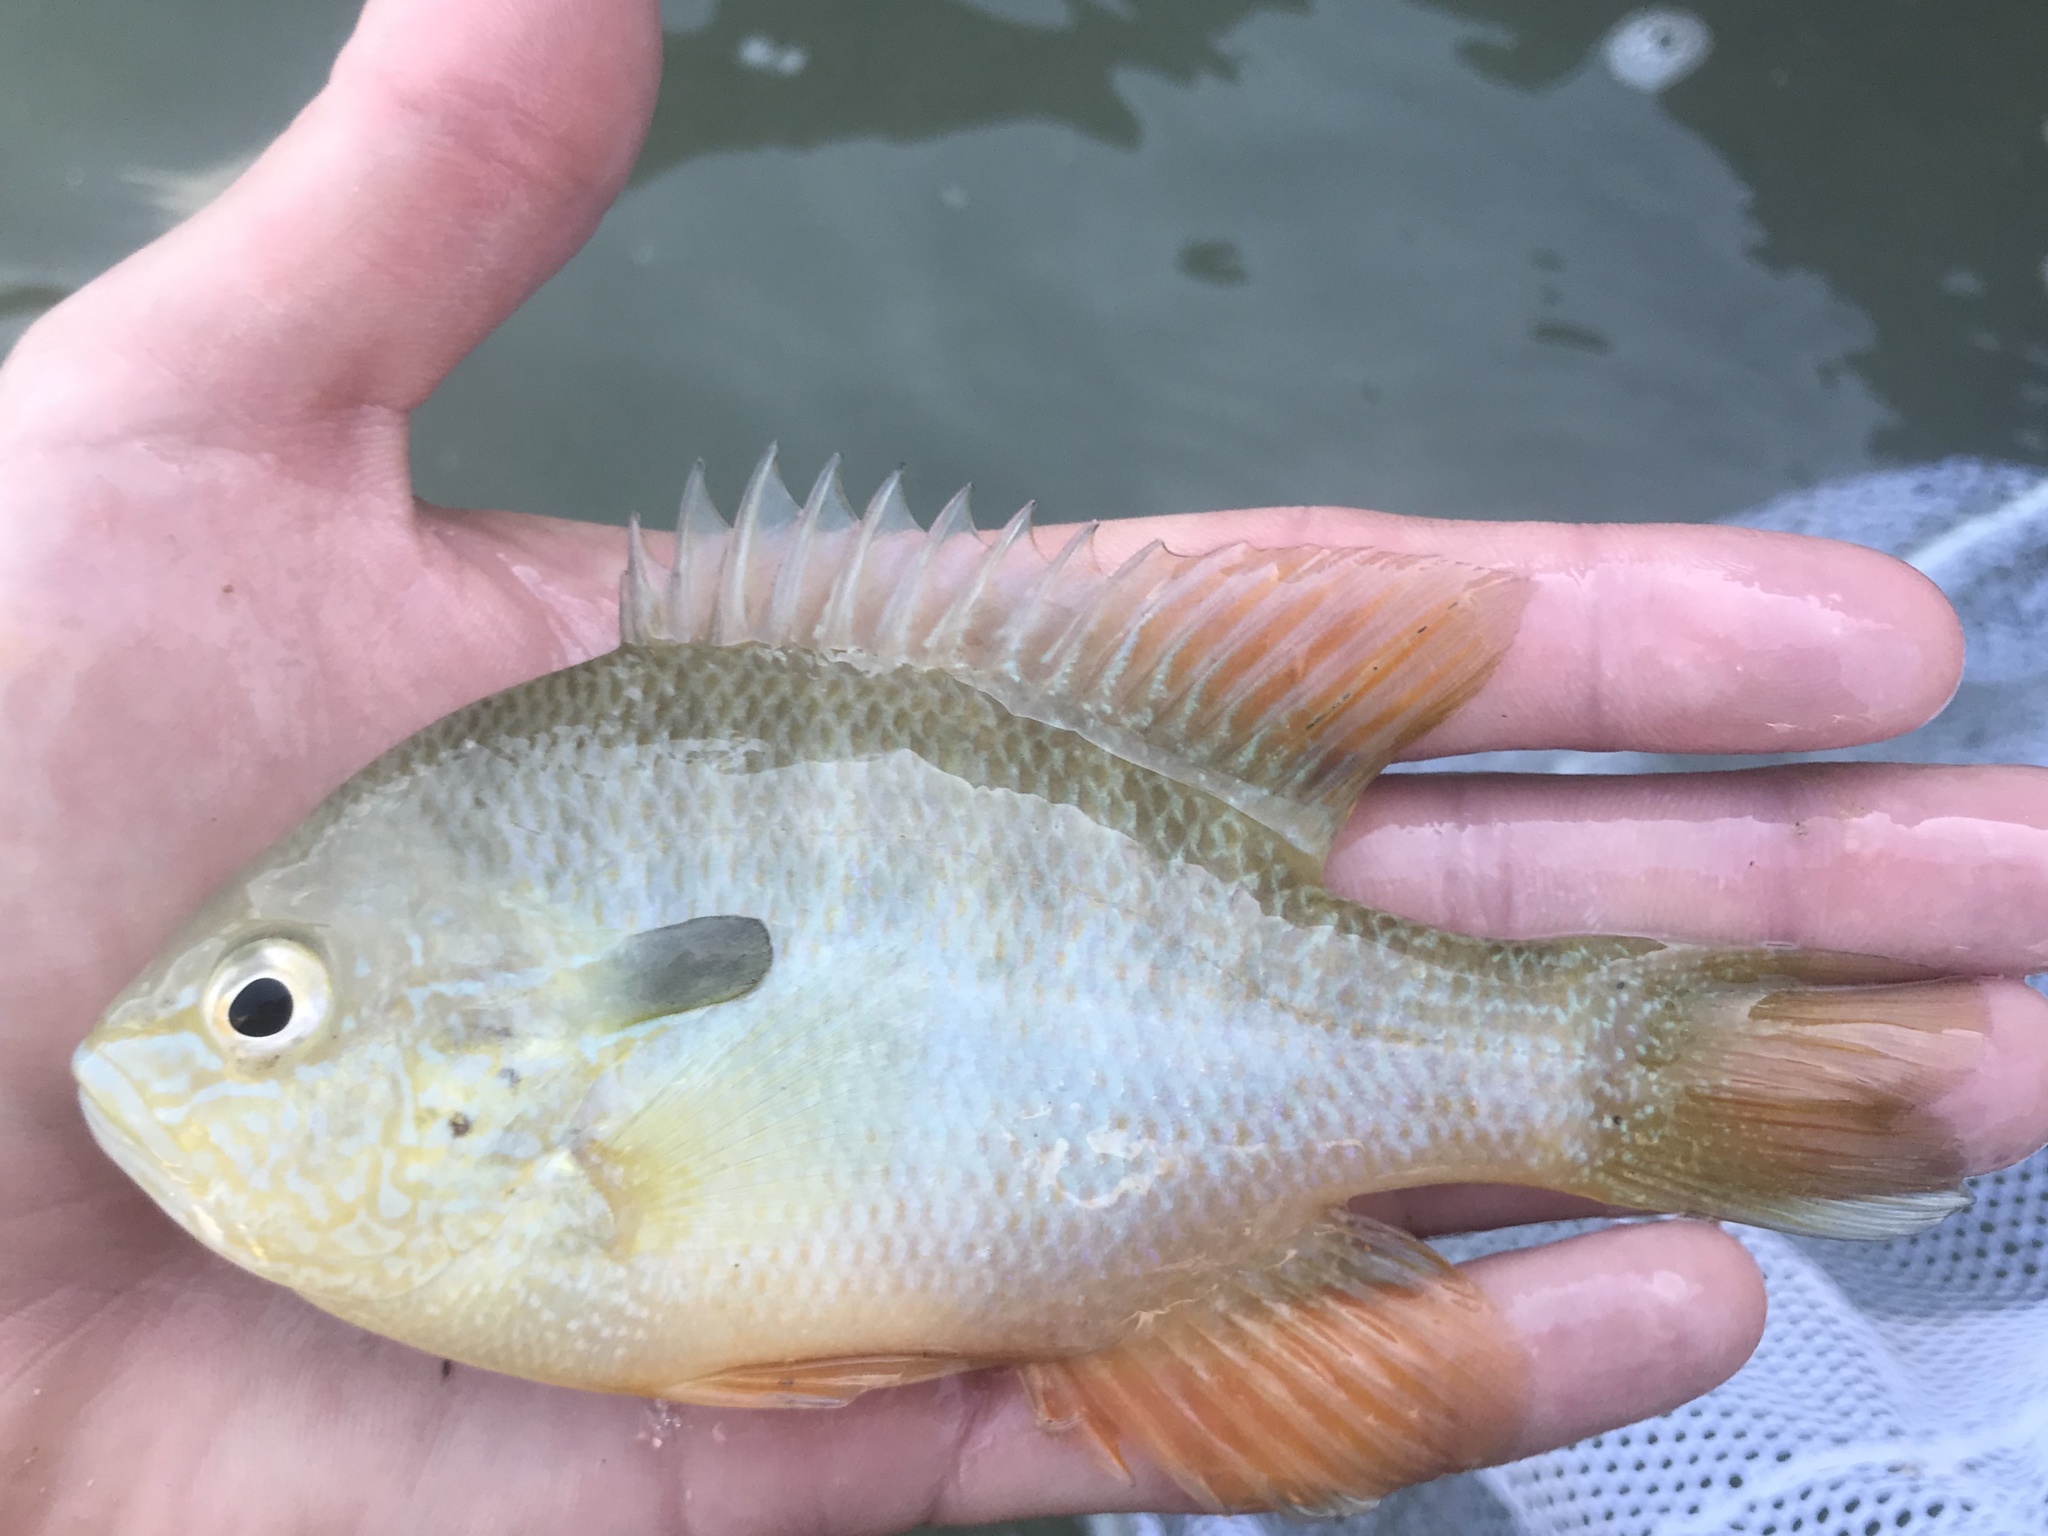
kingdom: Animalia
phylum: Chordata
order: Perciformes
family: Centrarchidae
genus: Lepomis
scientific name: Lepomis megalotis
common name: Longear sunfish
